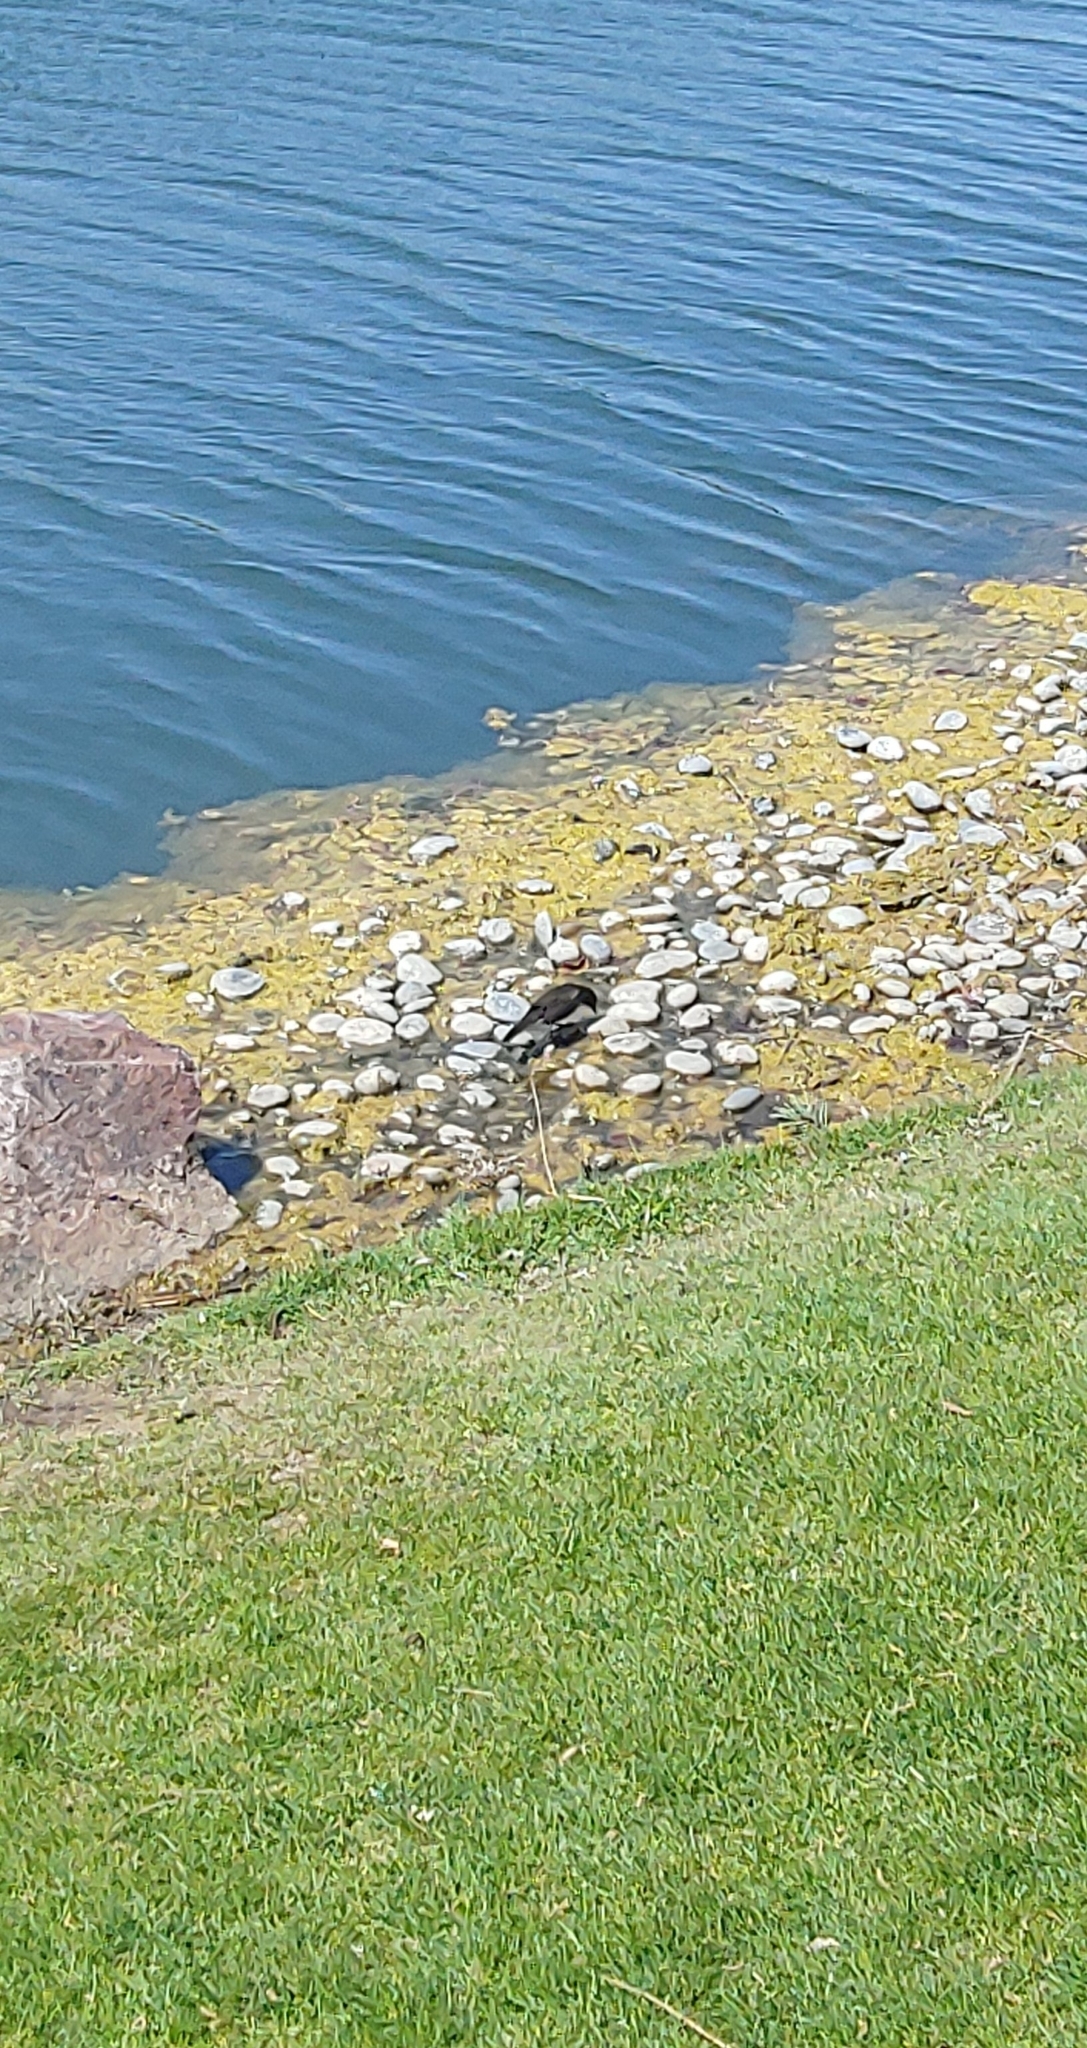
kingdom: Animalia
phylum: Chordata
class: Aves
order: Passeriformes
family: Icteridae
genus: Quiscalus
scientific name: Quiscalus quiscula
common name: Common grackle
